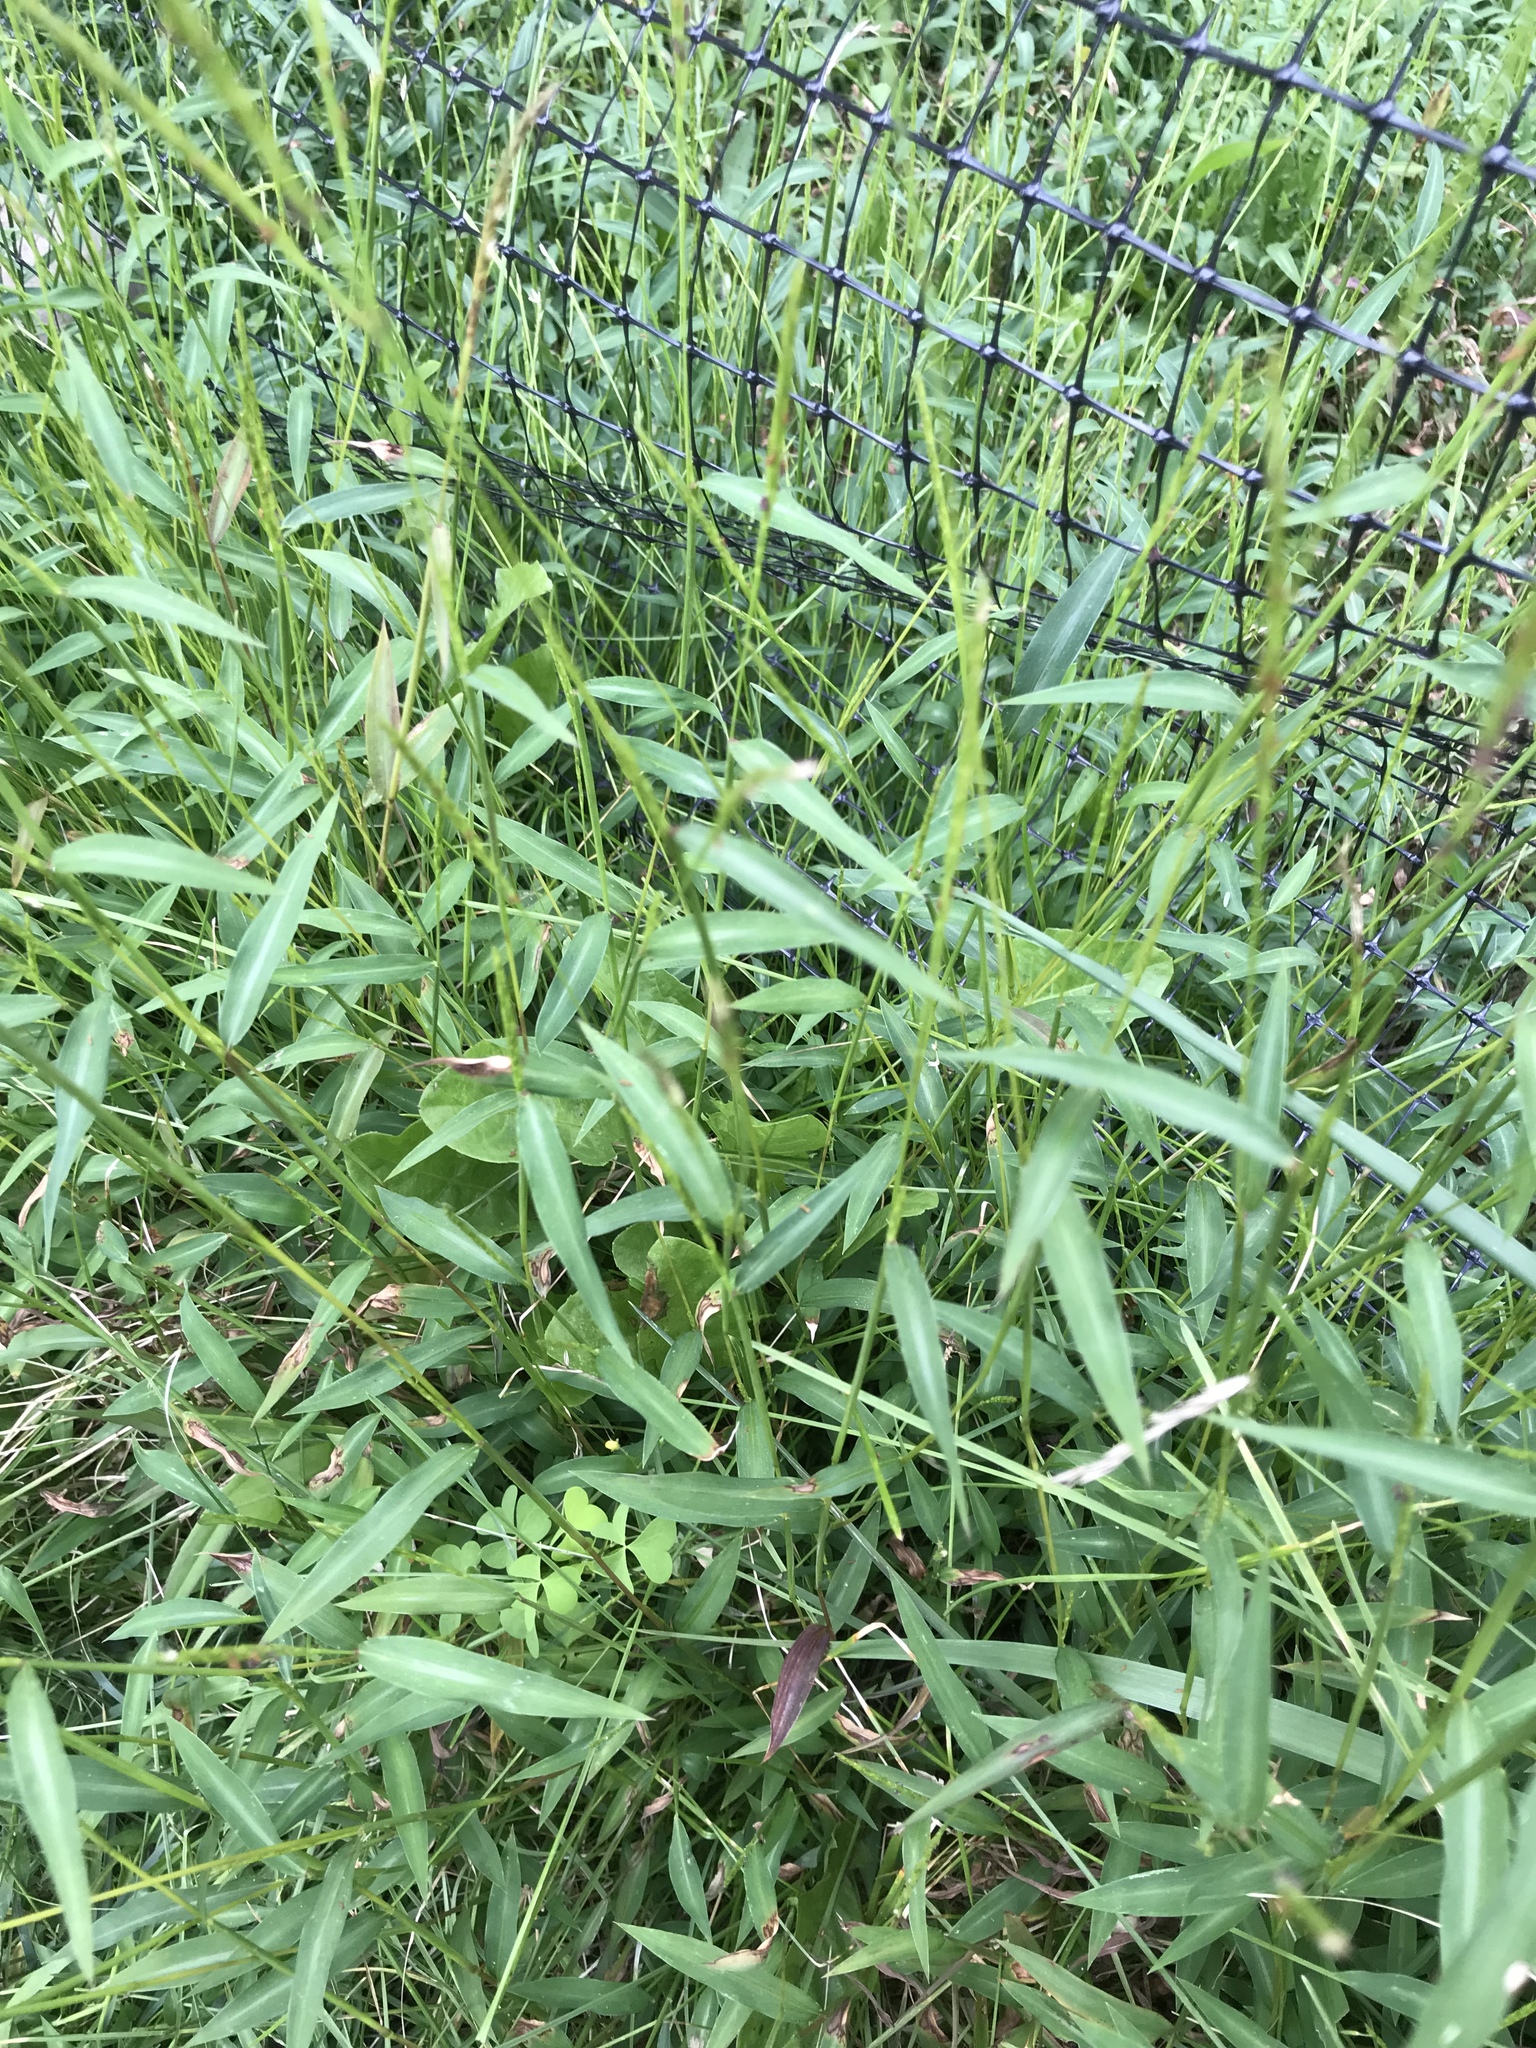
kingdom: Plantae
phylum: Tracheophyta
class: Liliopsida
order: Poales
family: Poaceae
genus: Microstegium
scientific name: Microstegium vimineum
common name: Japanese stiltgrass
